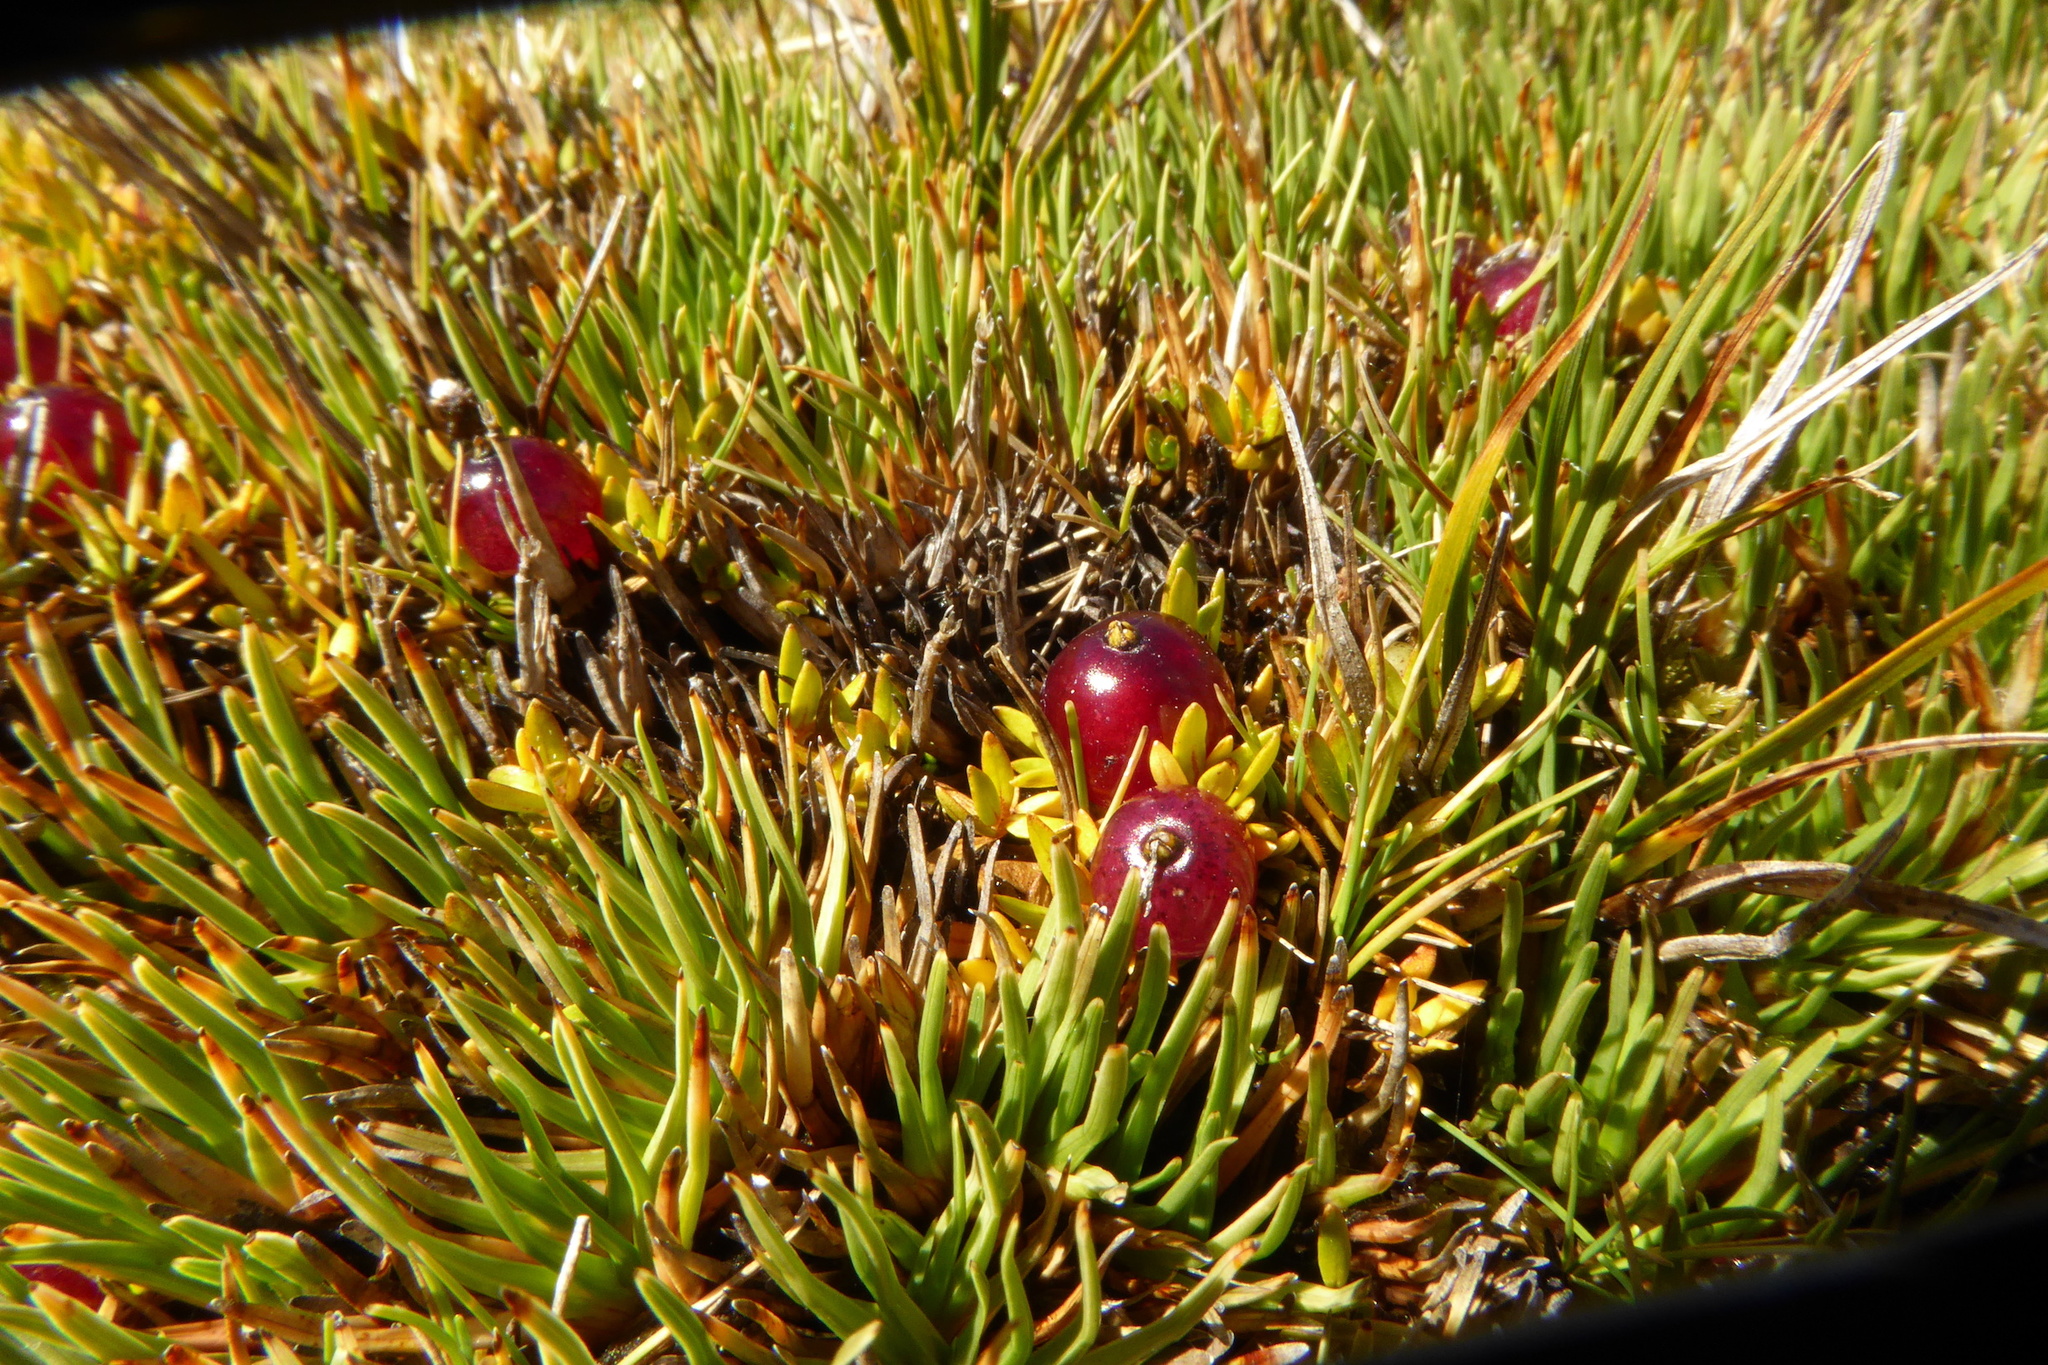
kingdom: Plantae
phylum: Tracheophyta
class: Magnoliopsida
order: Gentianales
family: Rubiaceae
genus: Coprosma
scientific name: Coprosma atropurpurea
